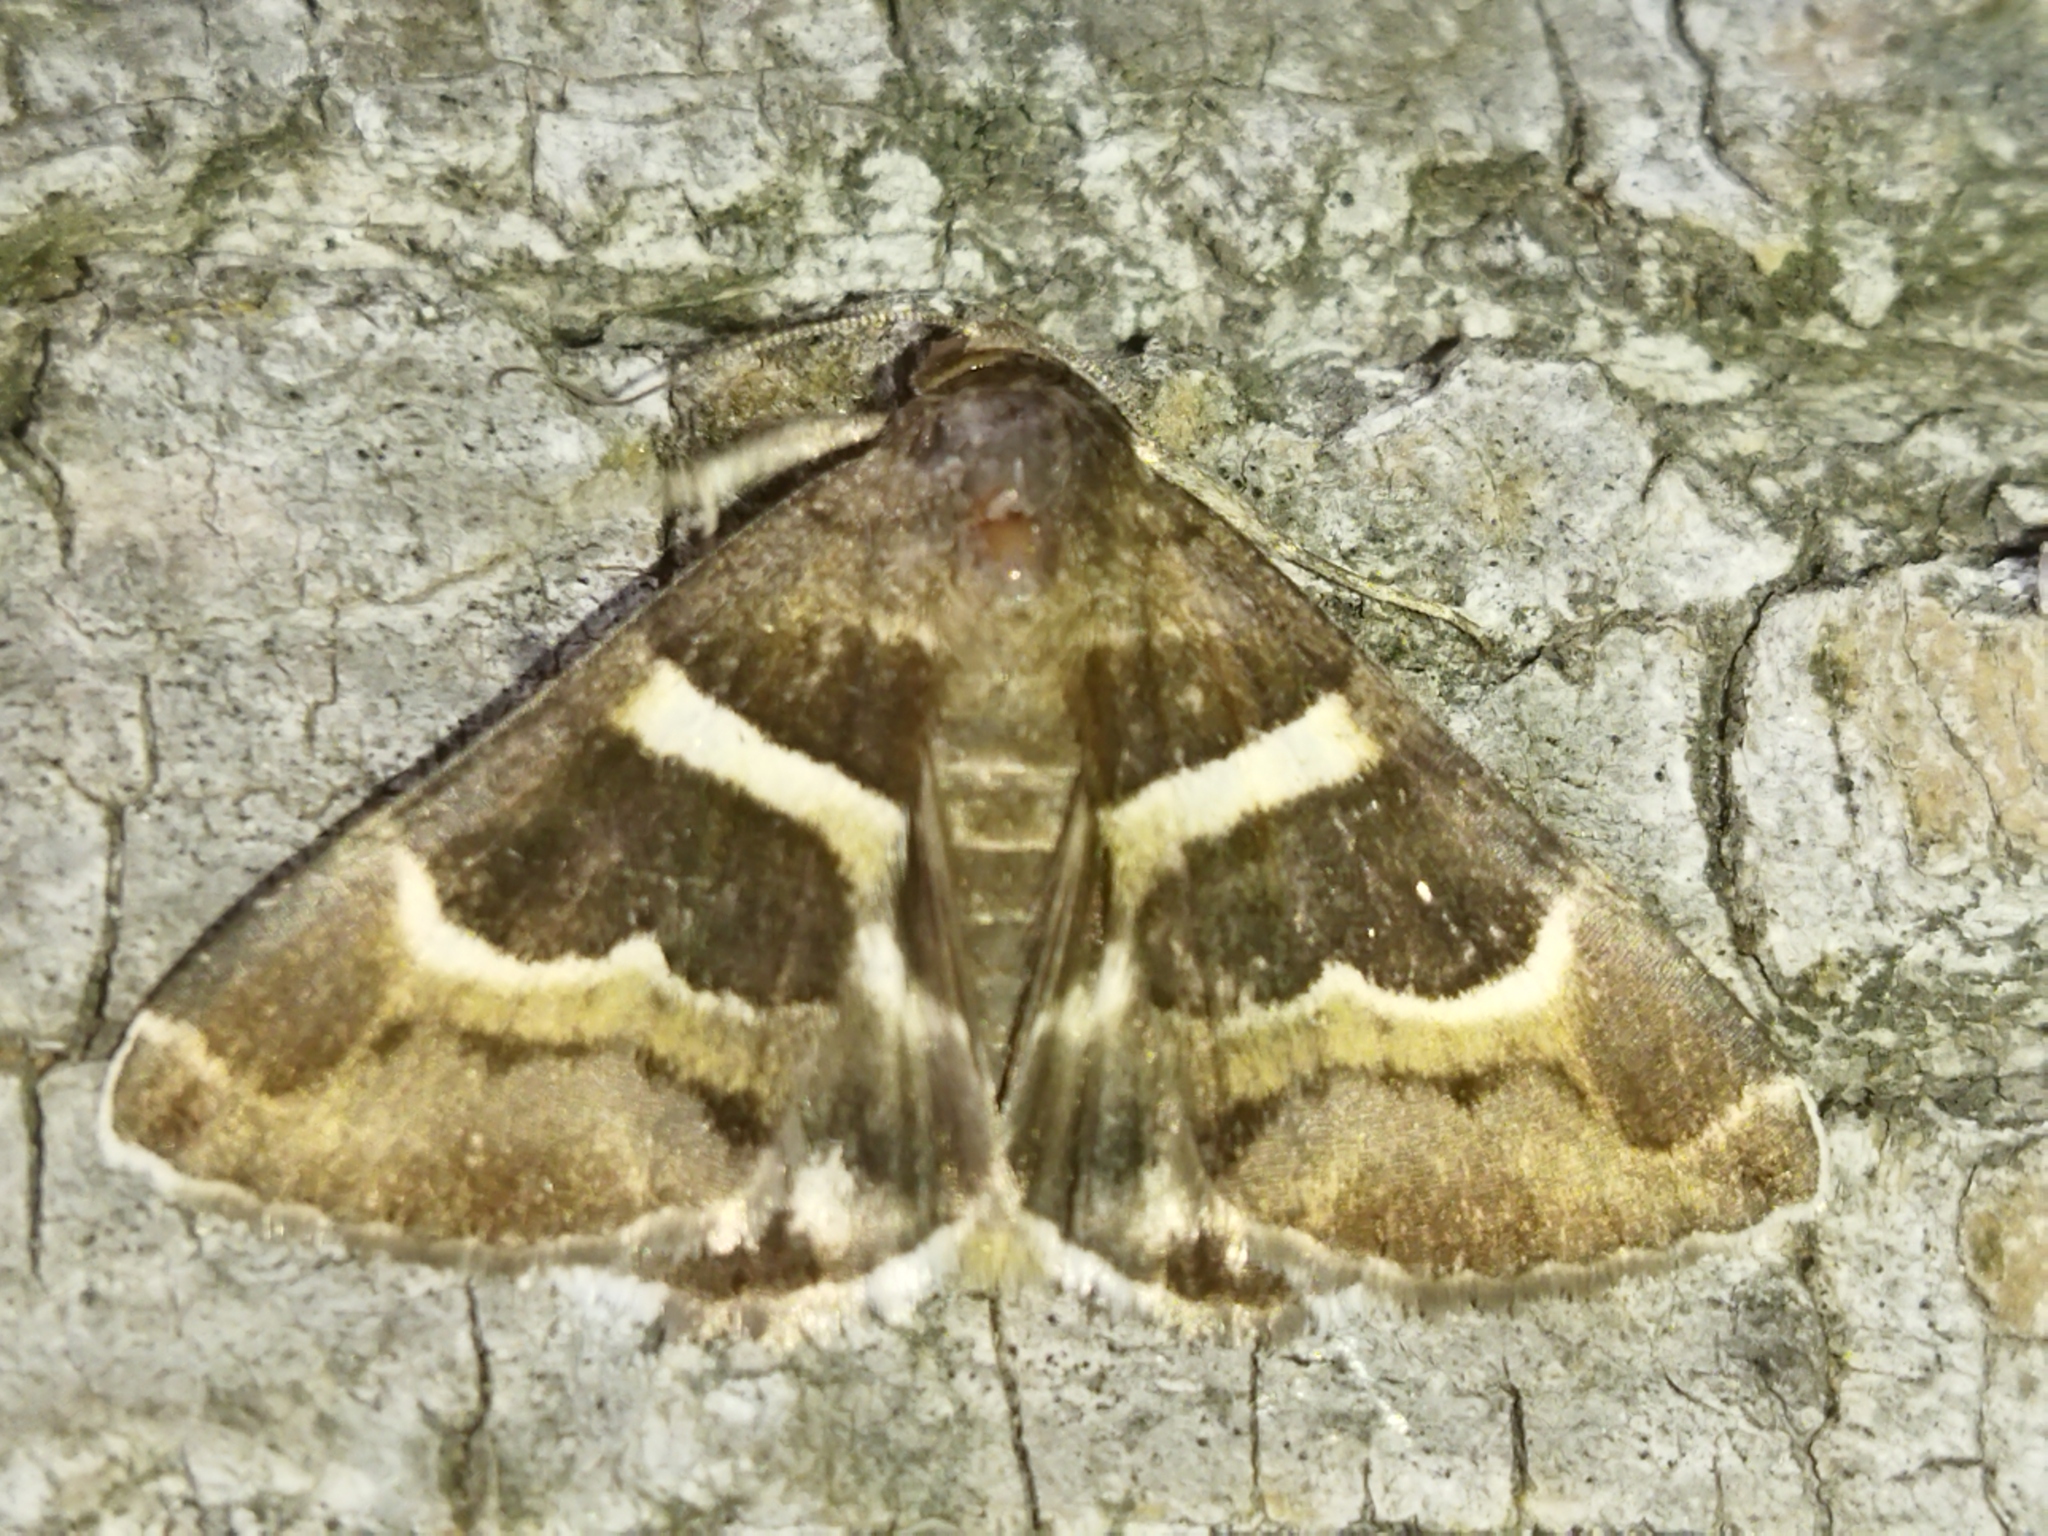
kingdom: Animalia
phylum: Arthropoda
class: Insecta
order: Lepidoptera
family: Erebidae
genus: Grammodes
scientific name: Grammodes stolida
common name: Geometrician
